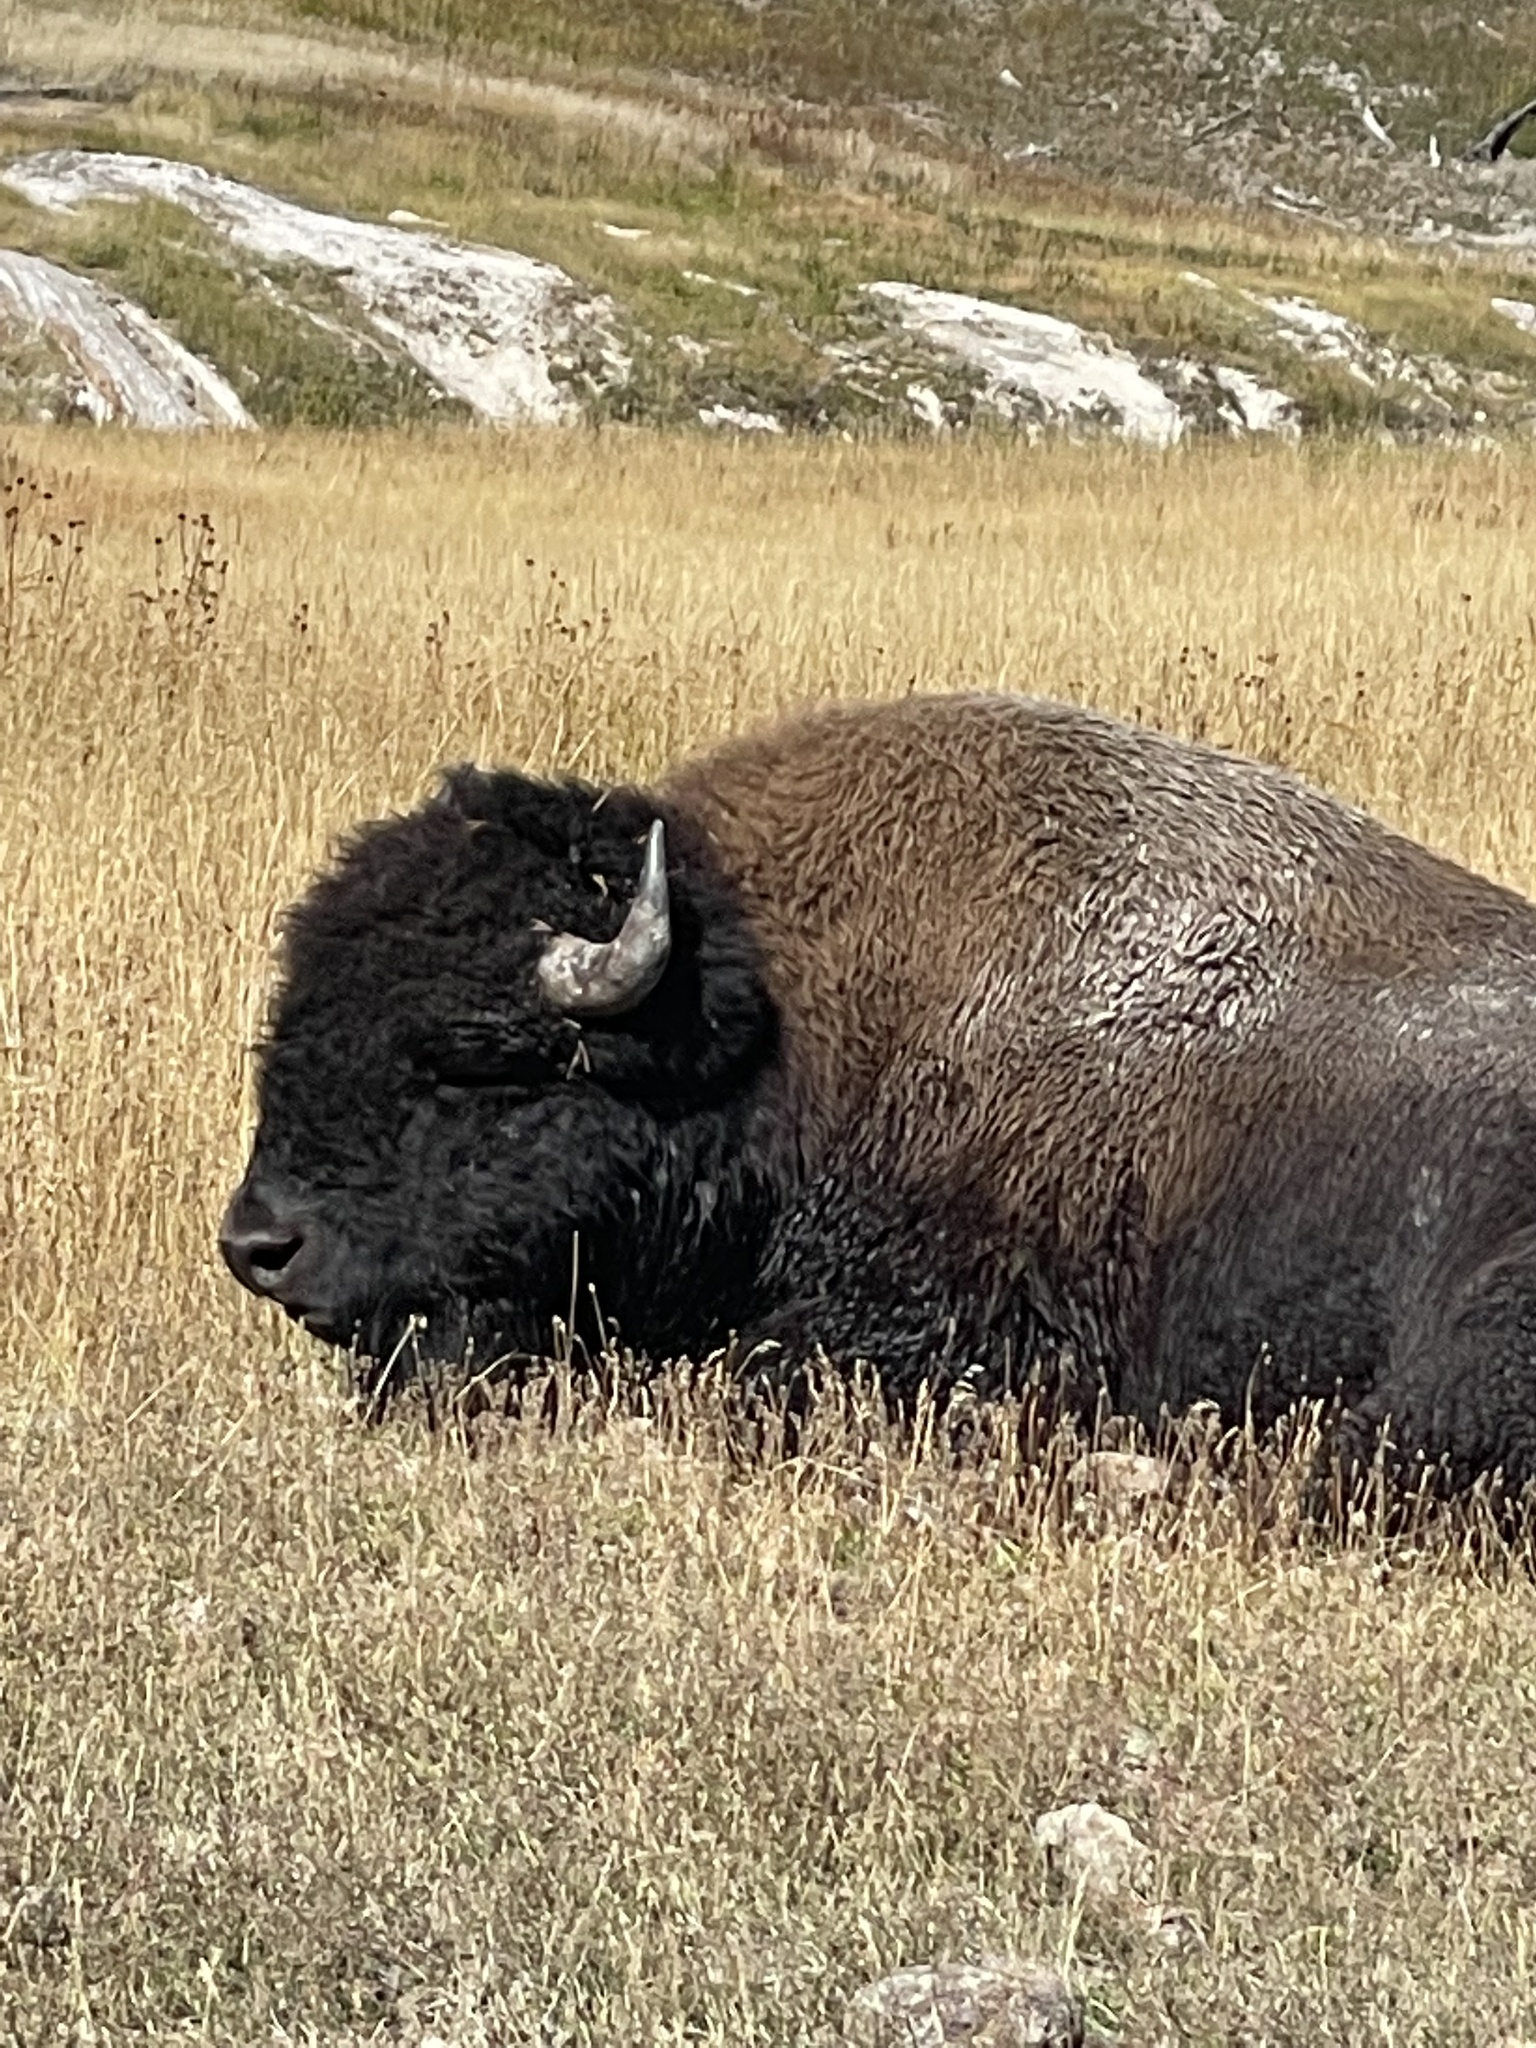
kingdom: Animalia
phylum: Chordata
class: Mammalia
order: Artiodactyla
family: Bovidae
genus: Bison
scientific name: Bison bison
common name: American bison
